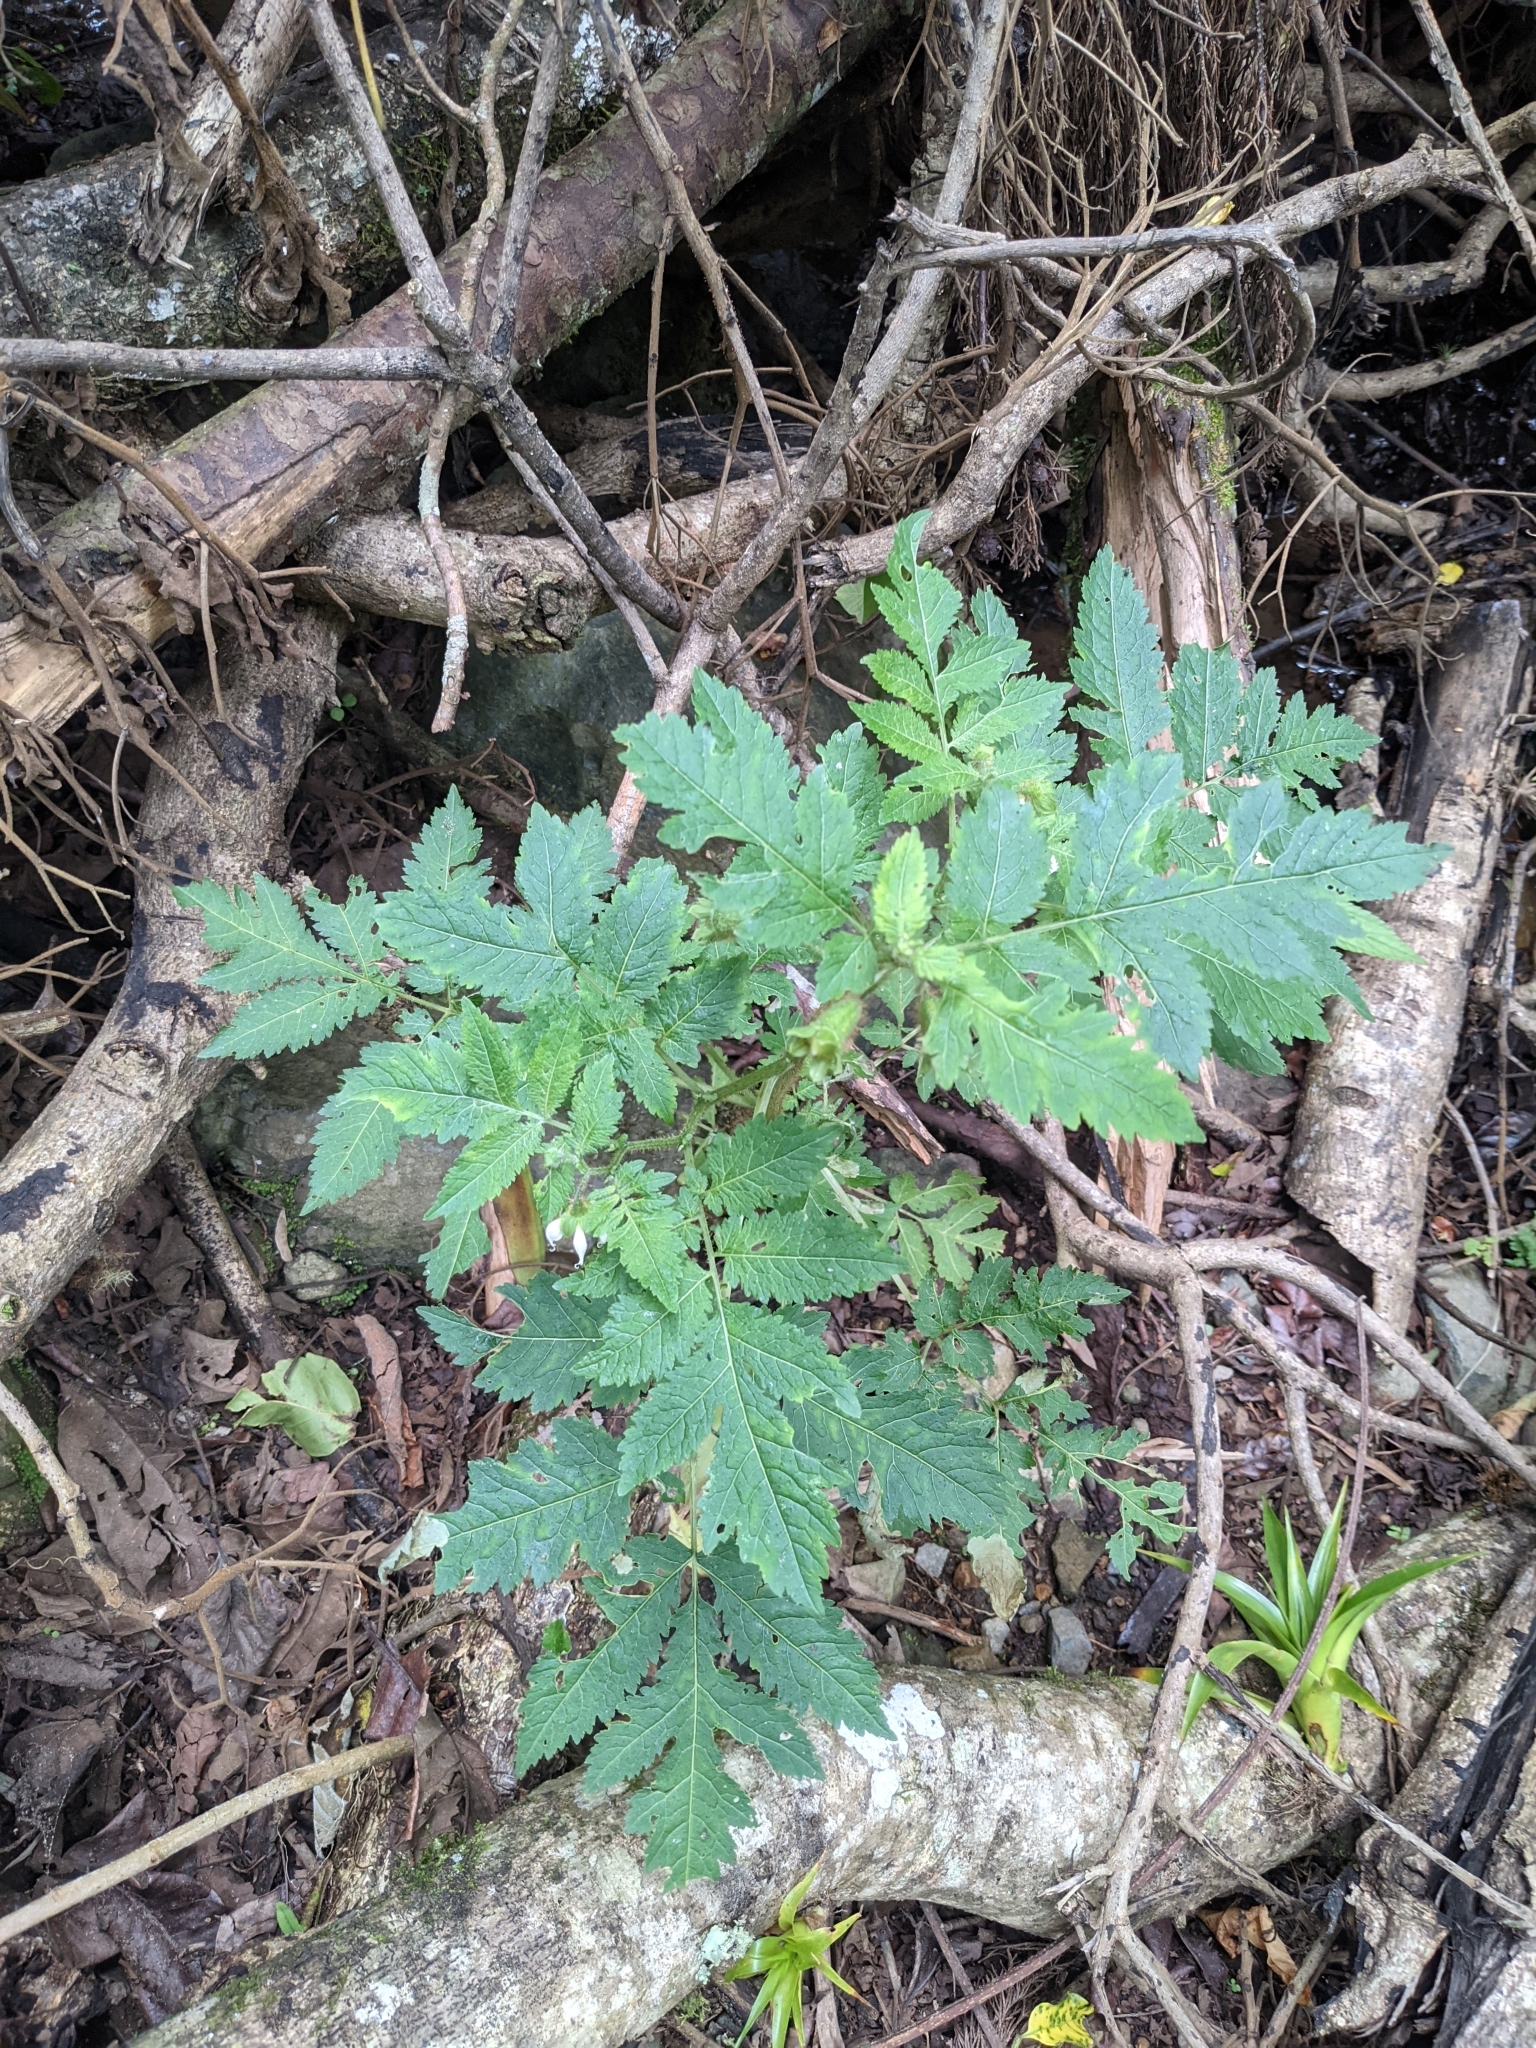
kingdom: Plantae
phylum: Tracheophyta
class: Magnoliopsida
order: Cornales
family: Loasaceae
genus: Nasa
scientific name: Nasa triphylla
